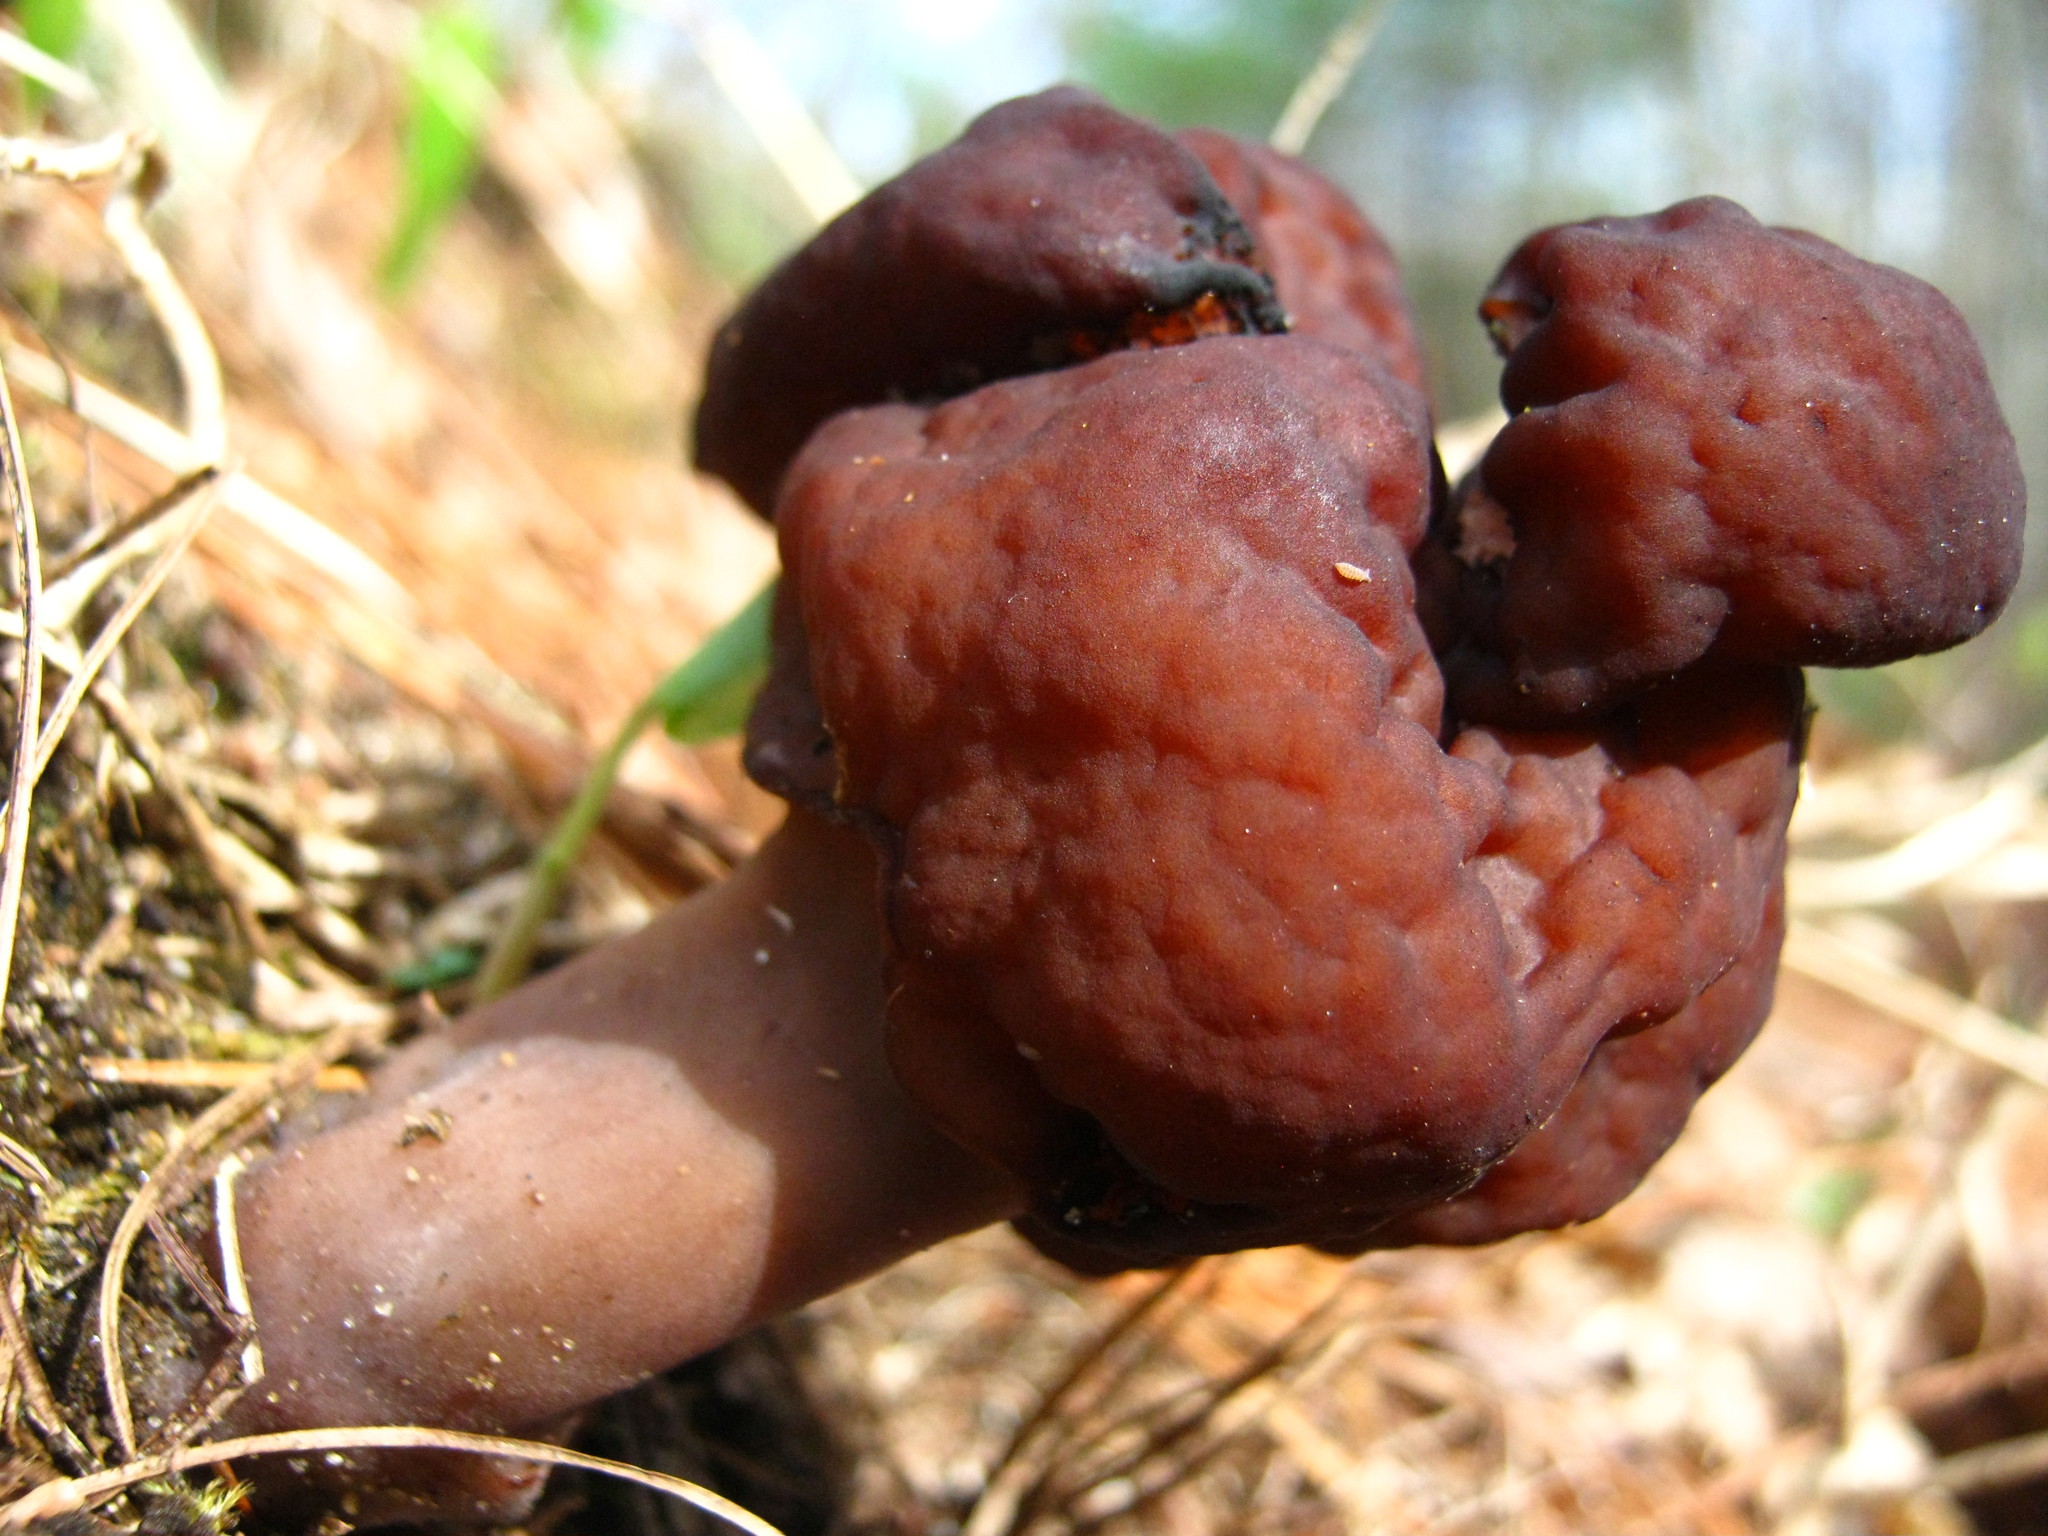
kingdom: Fungi
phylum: Ascomycota
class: Pezizomycetes
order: Pezizales
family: Discinaceae
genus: Gyromitra
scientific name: Gyromitra esculenta
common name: False morel
